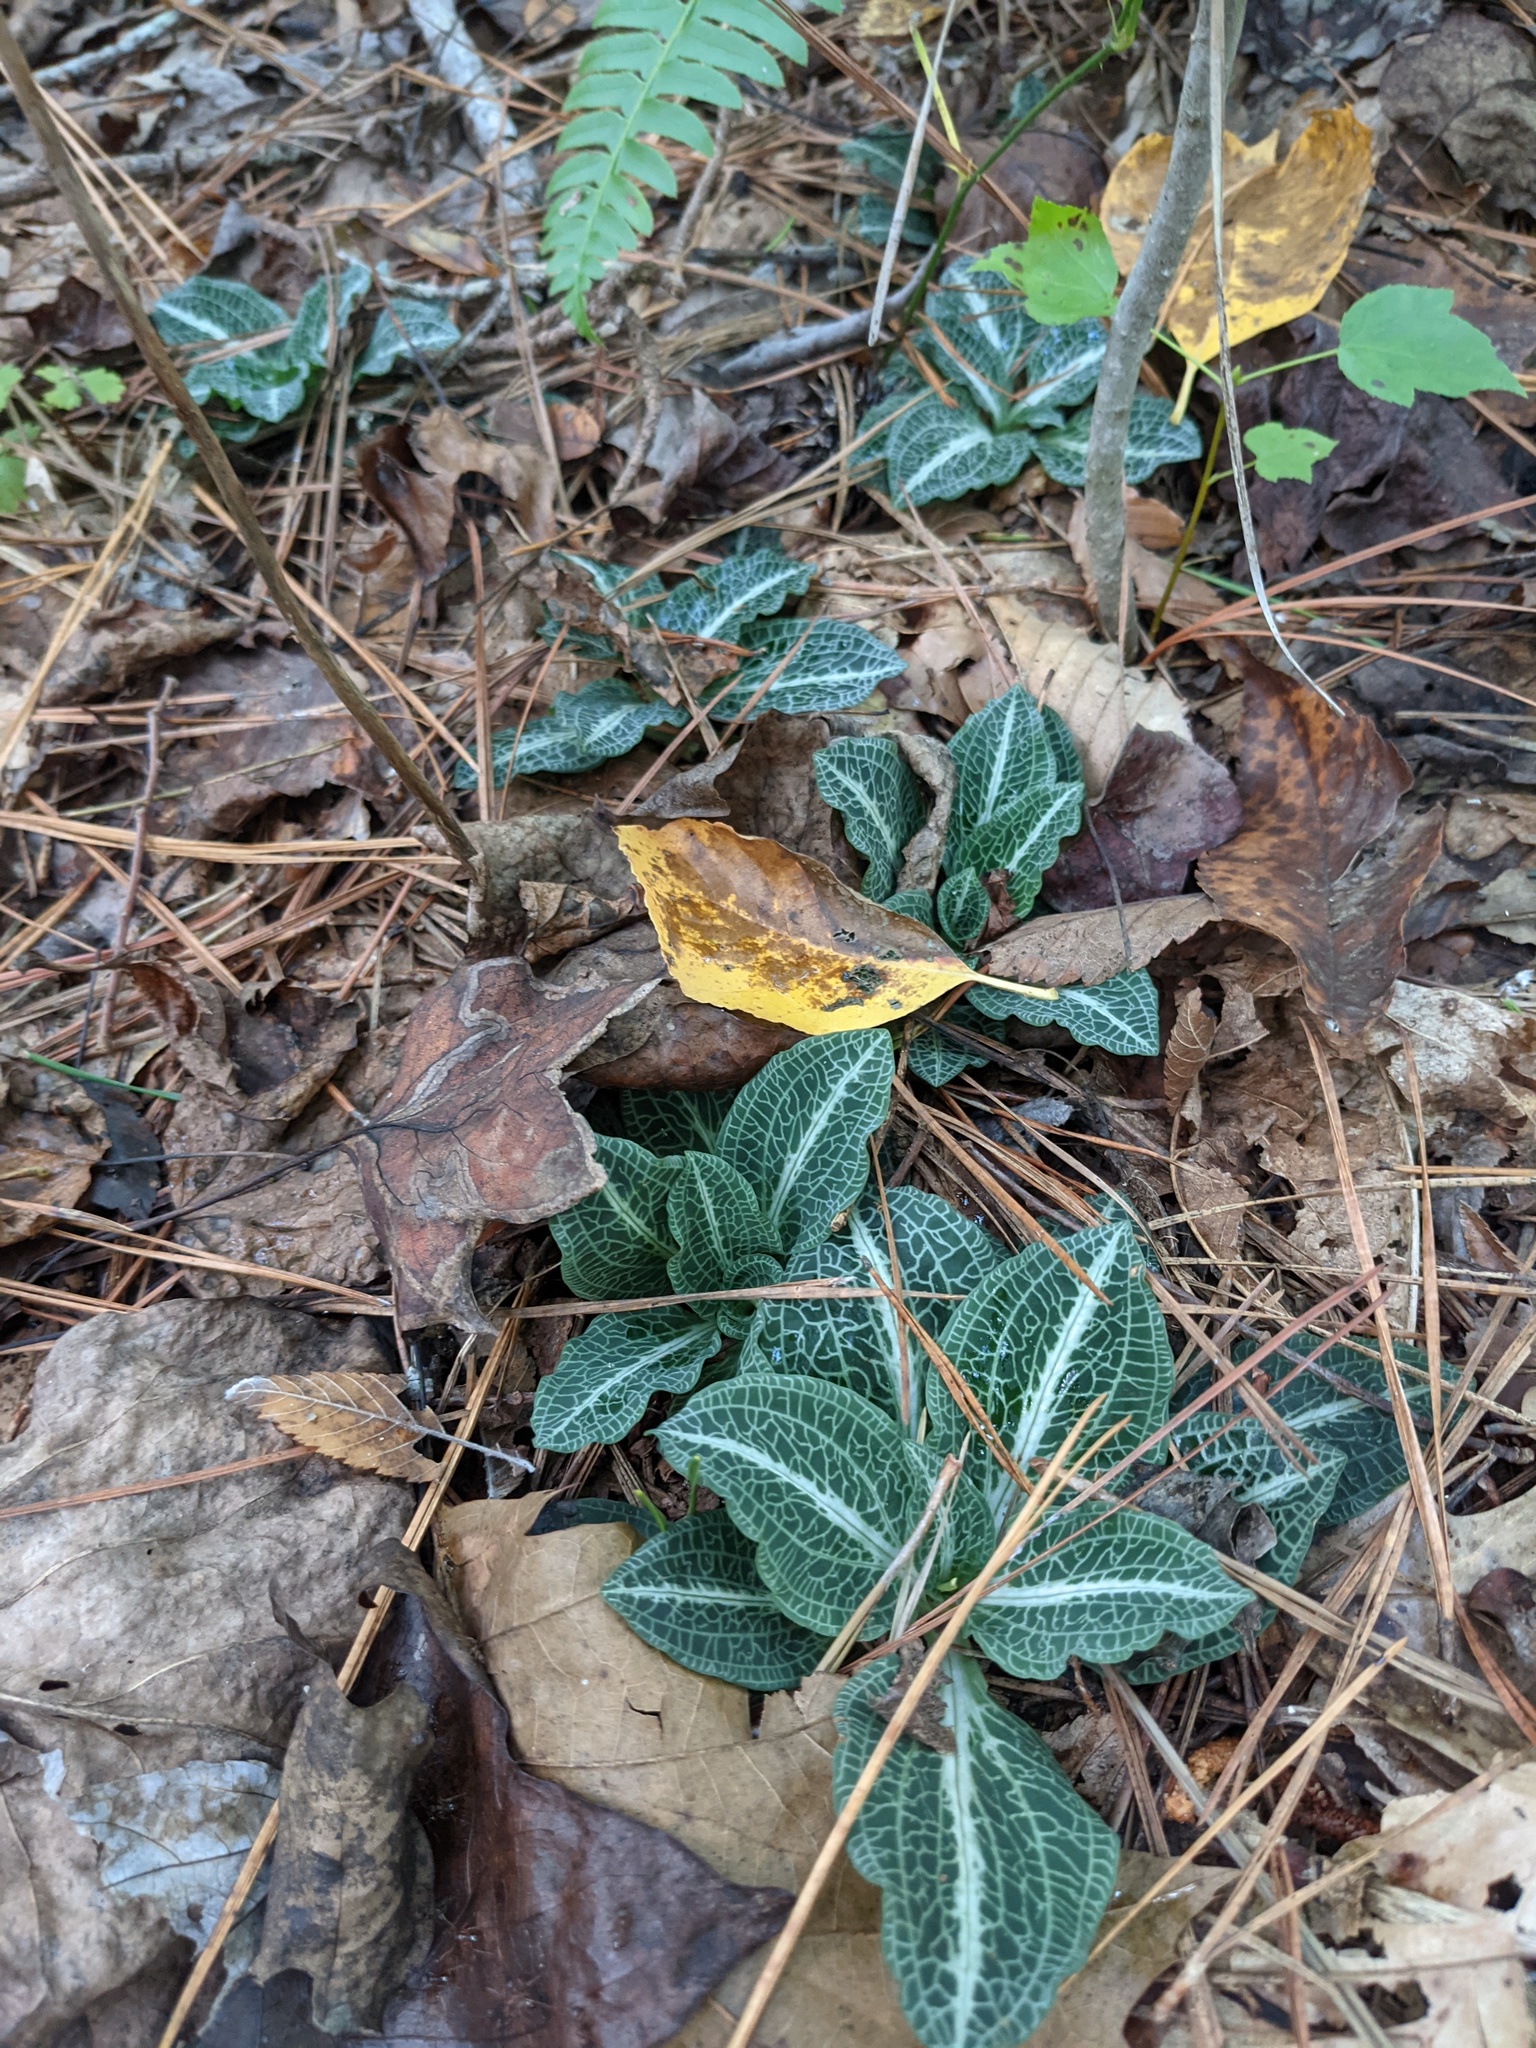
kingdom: Plantae
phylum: Tracheophyta
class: Liliopsida
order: Asparagales
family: Orchidaceae
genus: Goodyera
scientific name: Goodyera pubescens
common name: Downy rattlesnake-plantain
